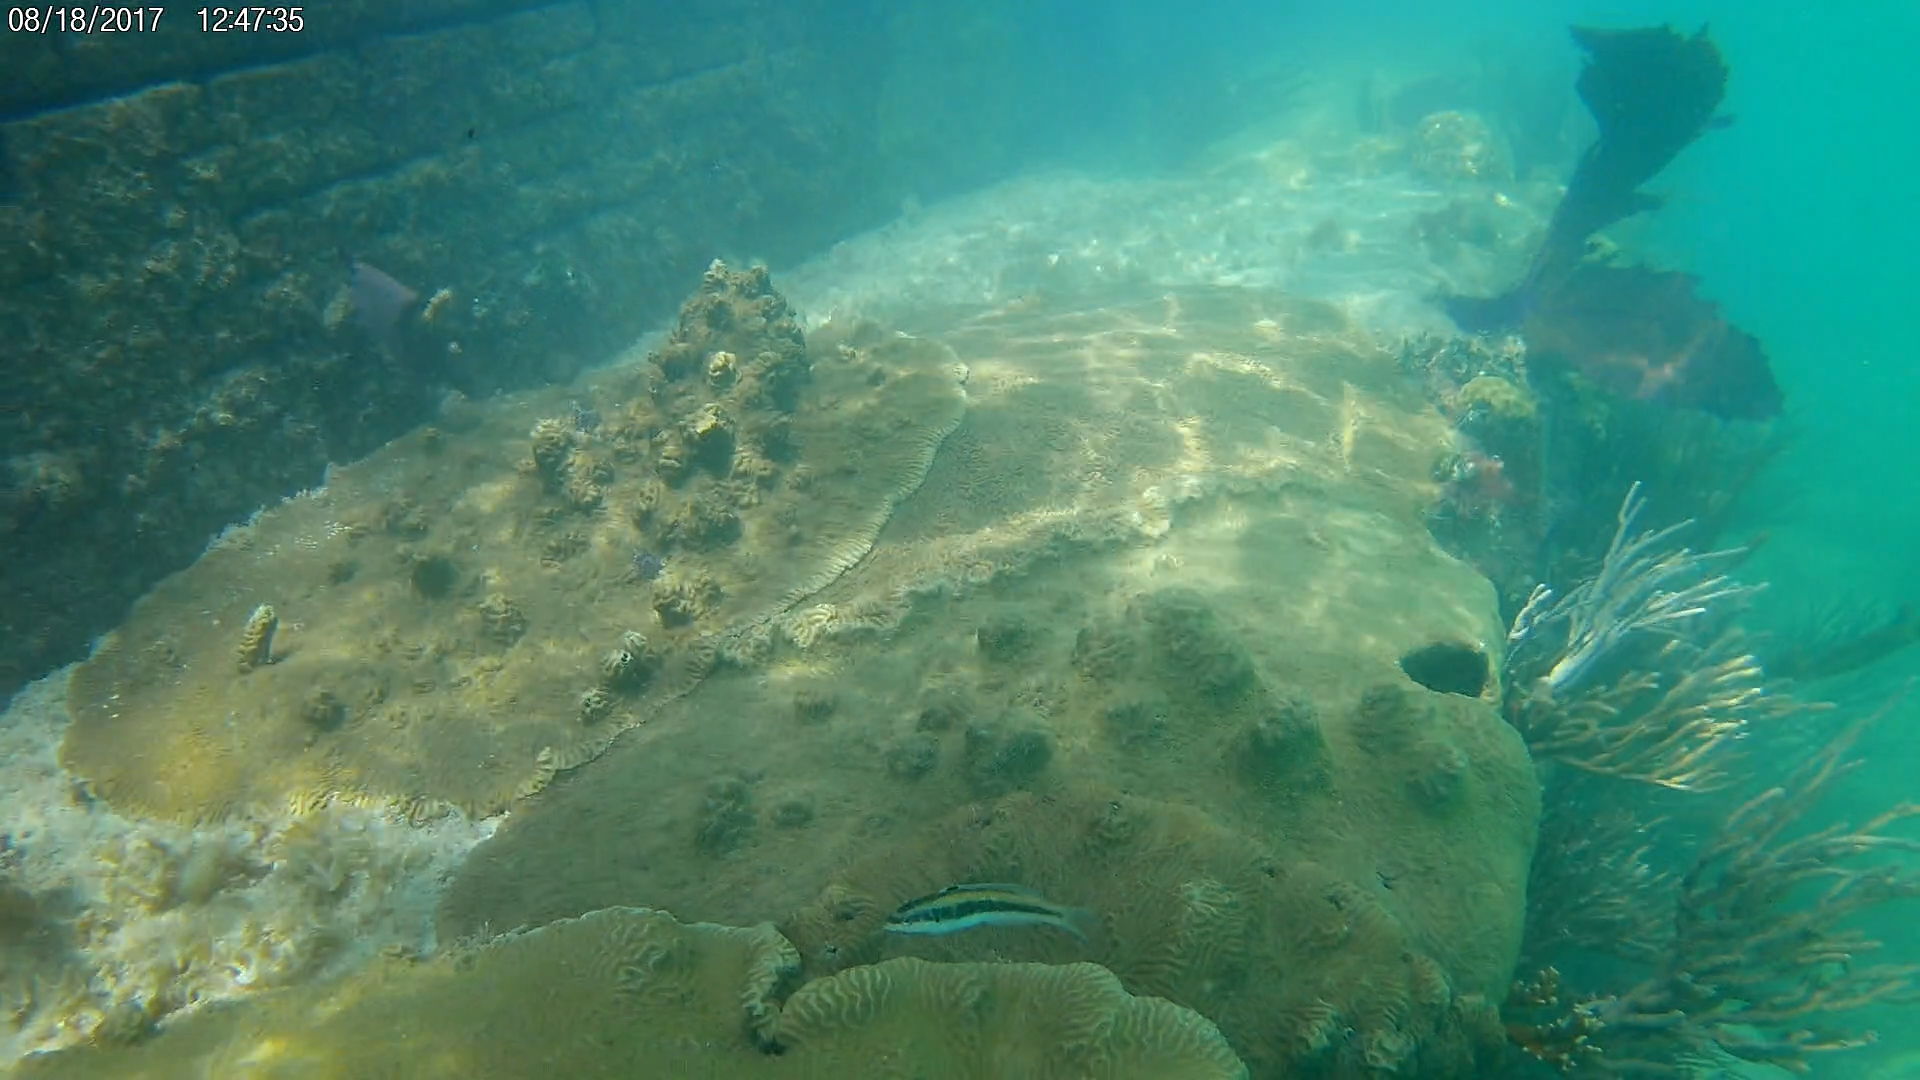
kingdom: Animalia
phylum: Chordata
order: Perciformes
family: Labridae
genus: Thalassoma
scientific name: Thalassoma bifasciatum
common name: Bluehead wrasse
